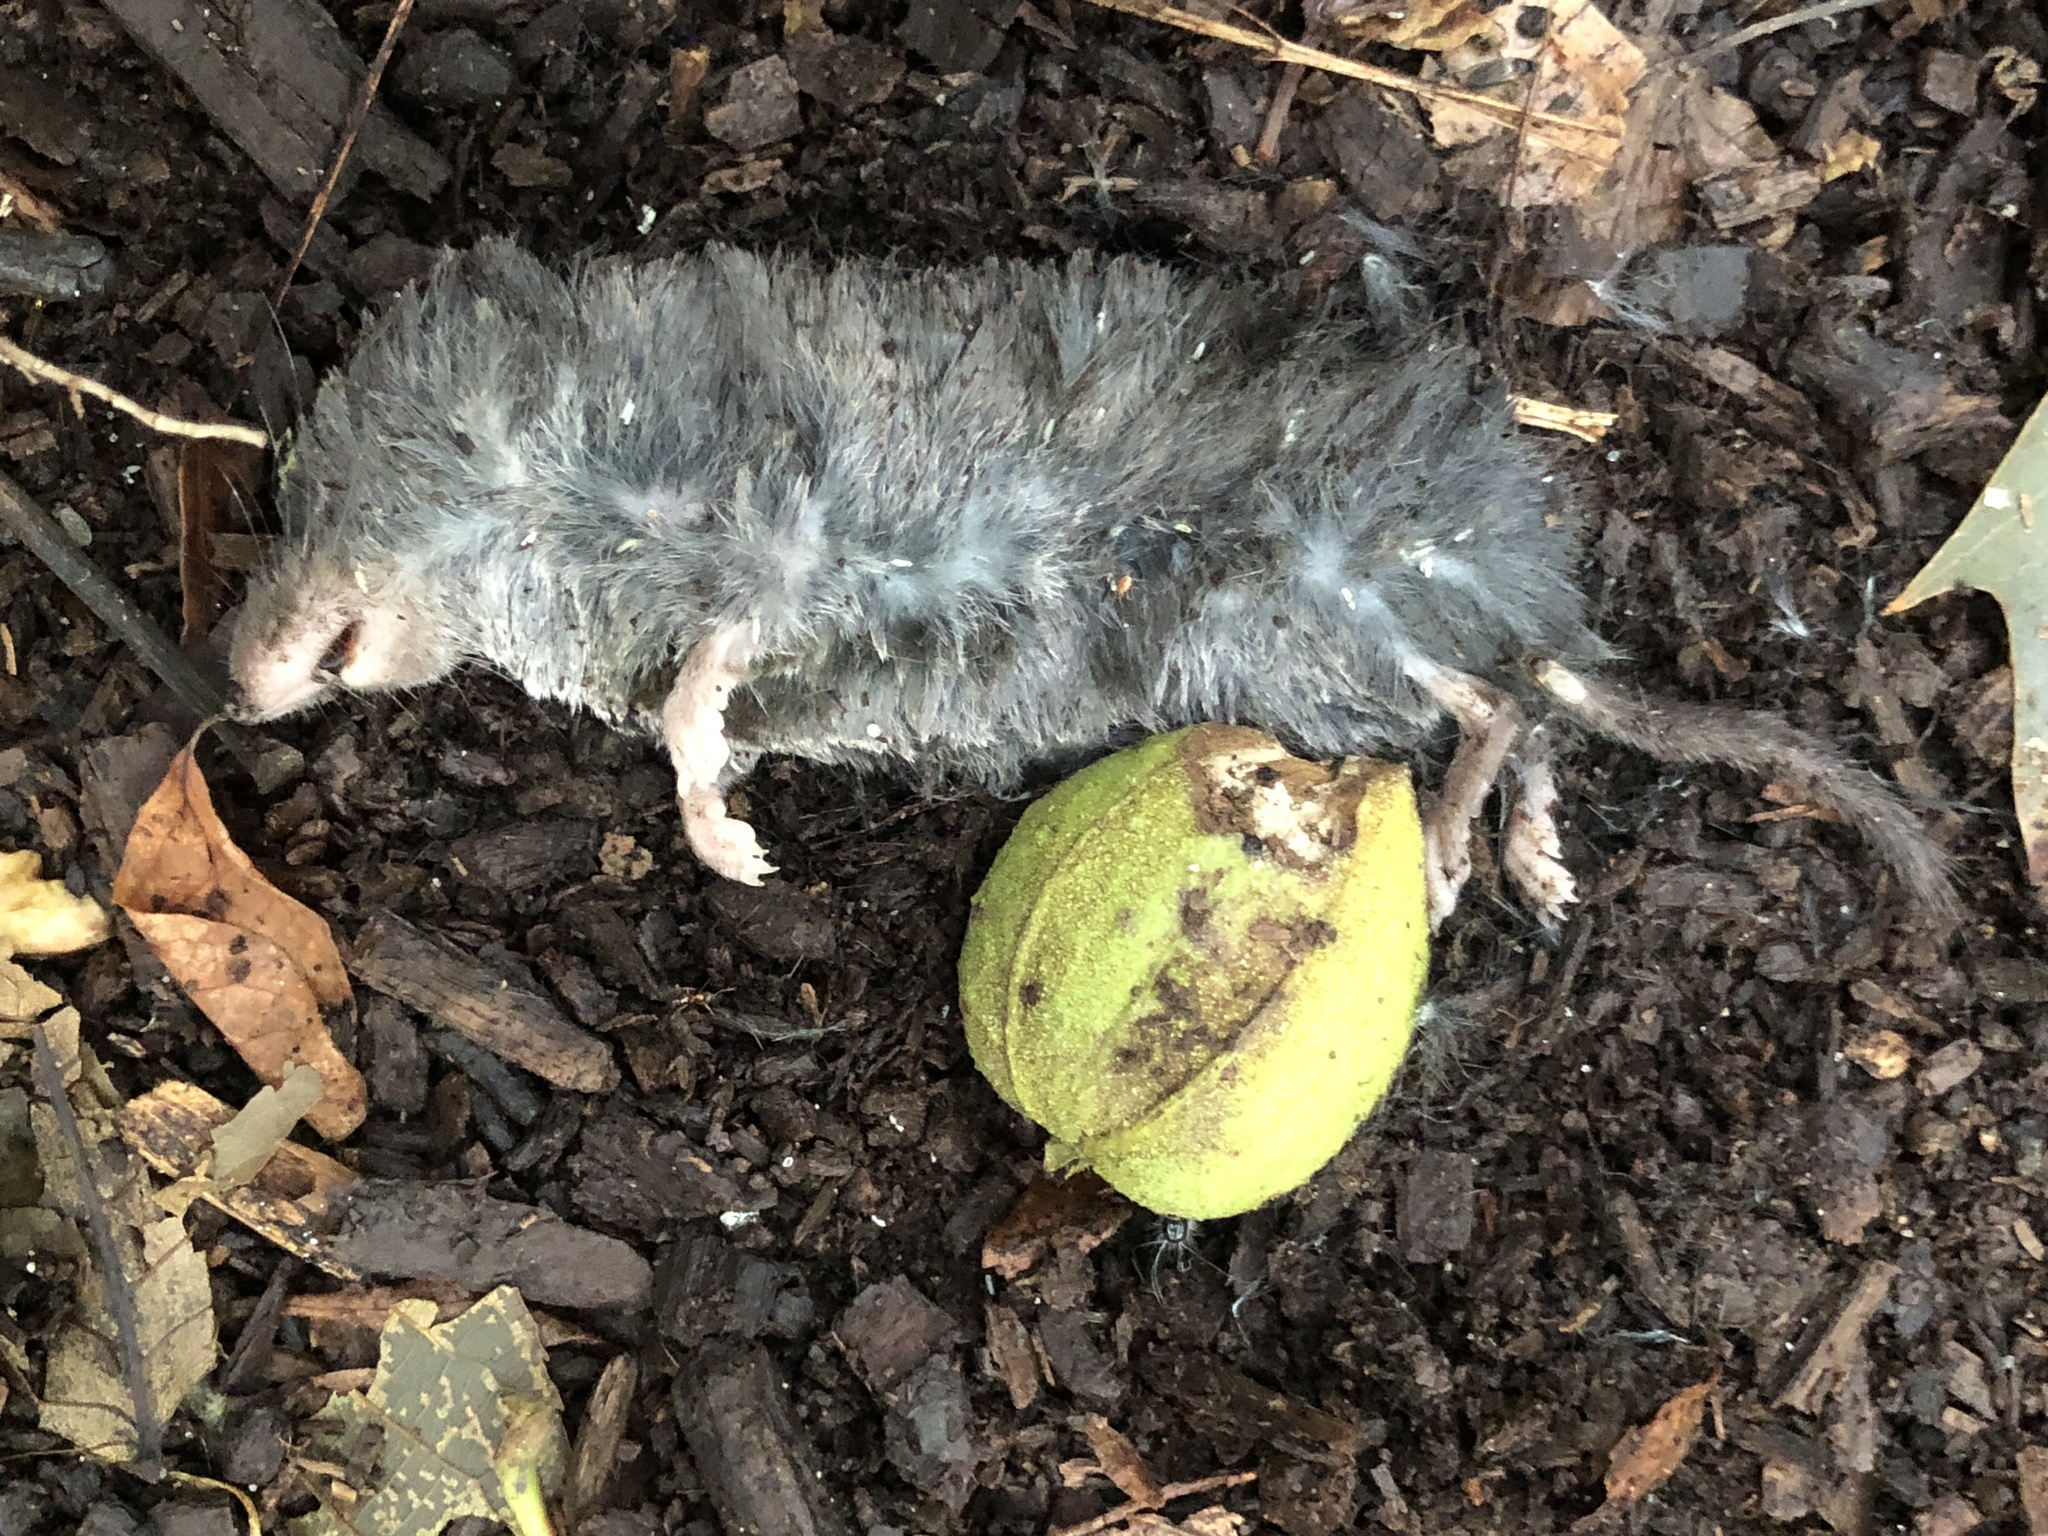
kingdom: Animalia
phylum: Chordata
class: Mammalia
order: Soricomorpha
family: Soricidae
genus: Blarina
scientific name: Blarina brevicauda
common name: Northern short-tailed shrew
